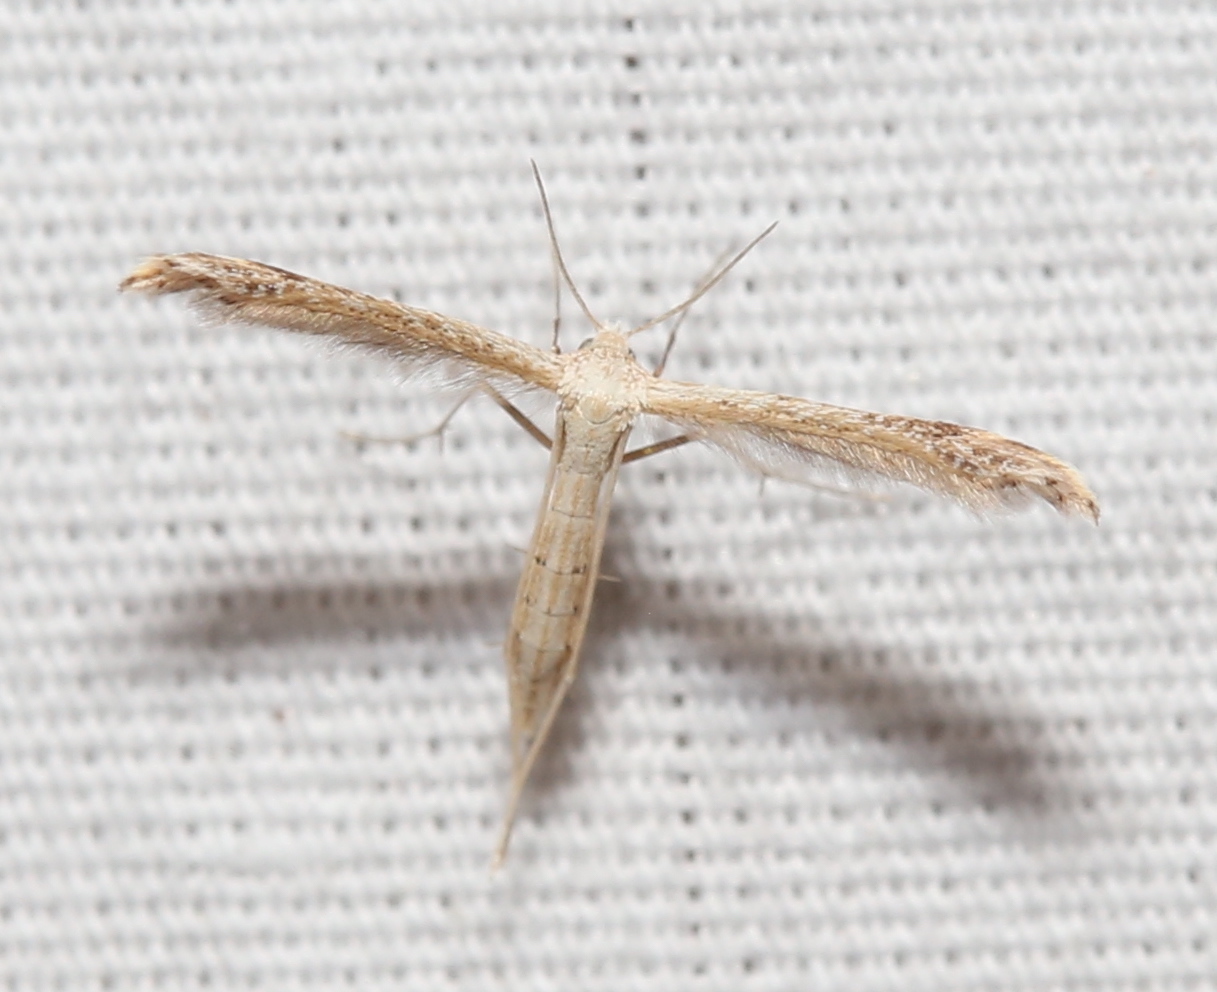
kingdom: Animalia
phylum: Arthropoda
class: Insecta
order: Lepidoptera
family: Pterophoridae
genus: Lioptilodes
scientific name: Lioptilodes albistriolatus
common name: Moth
